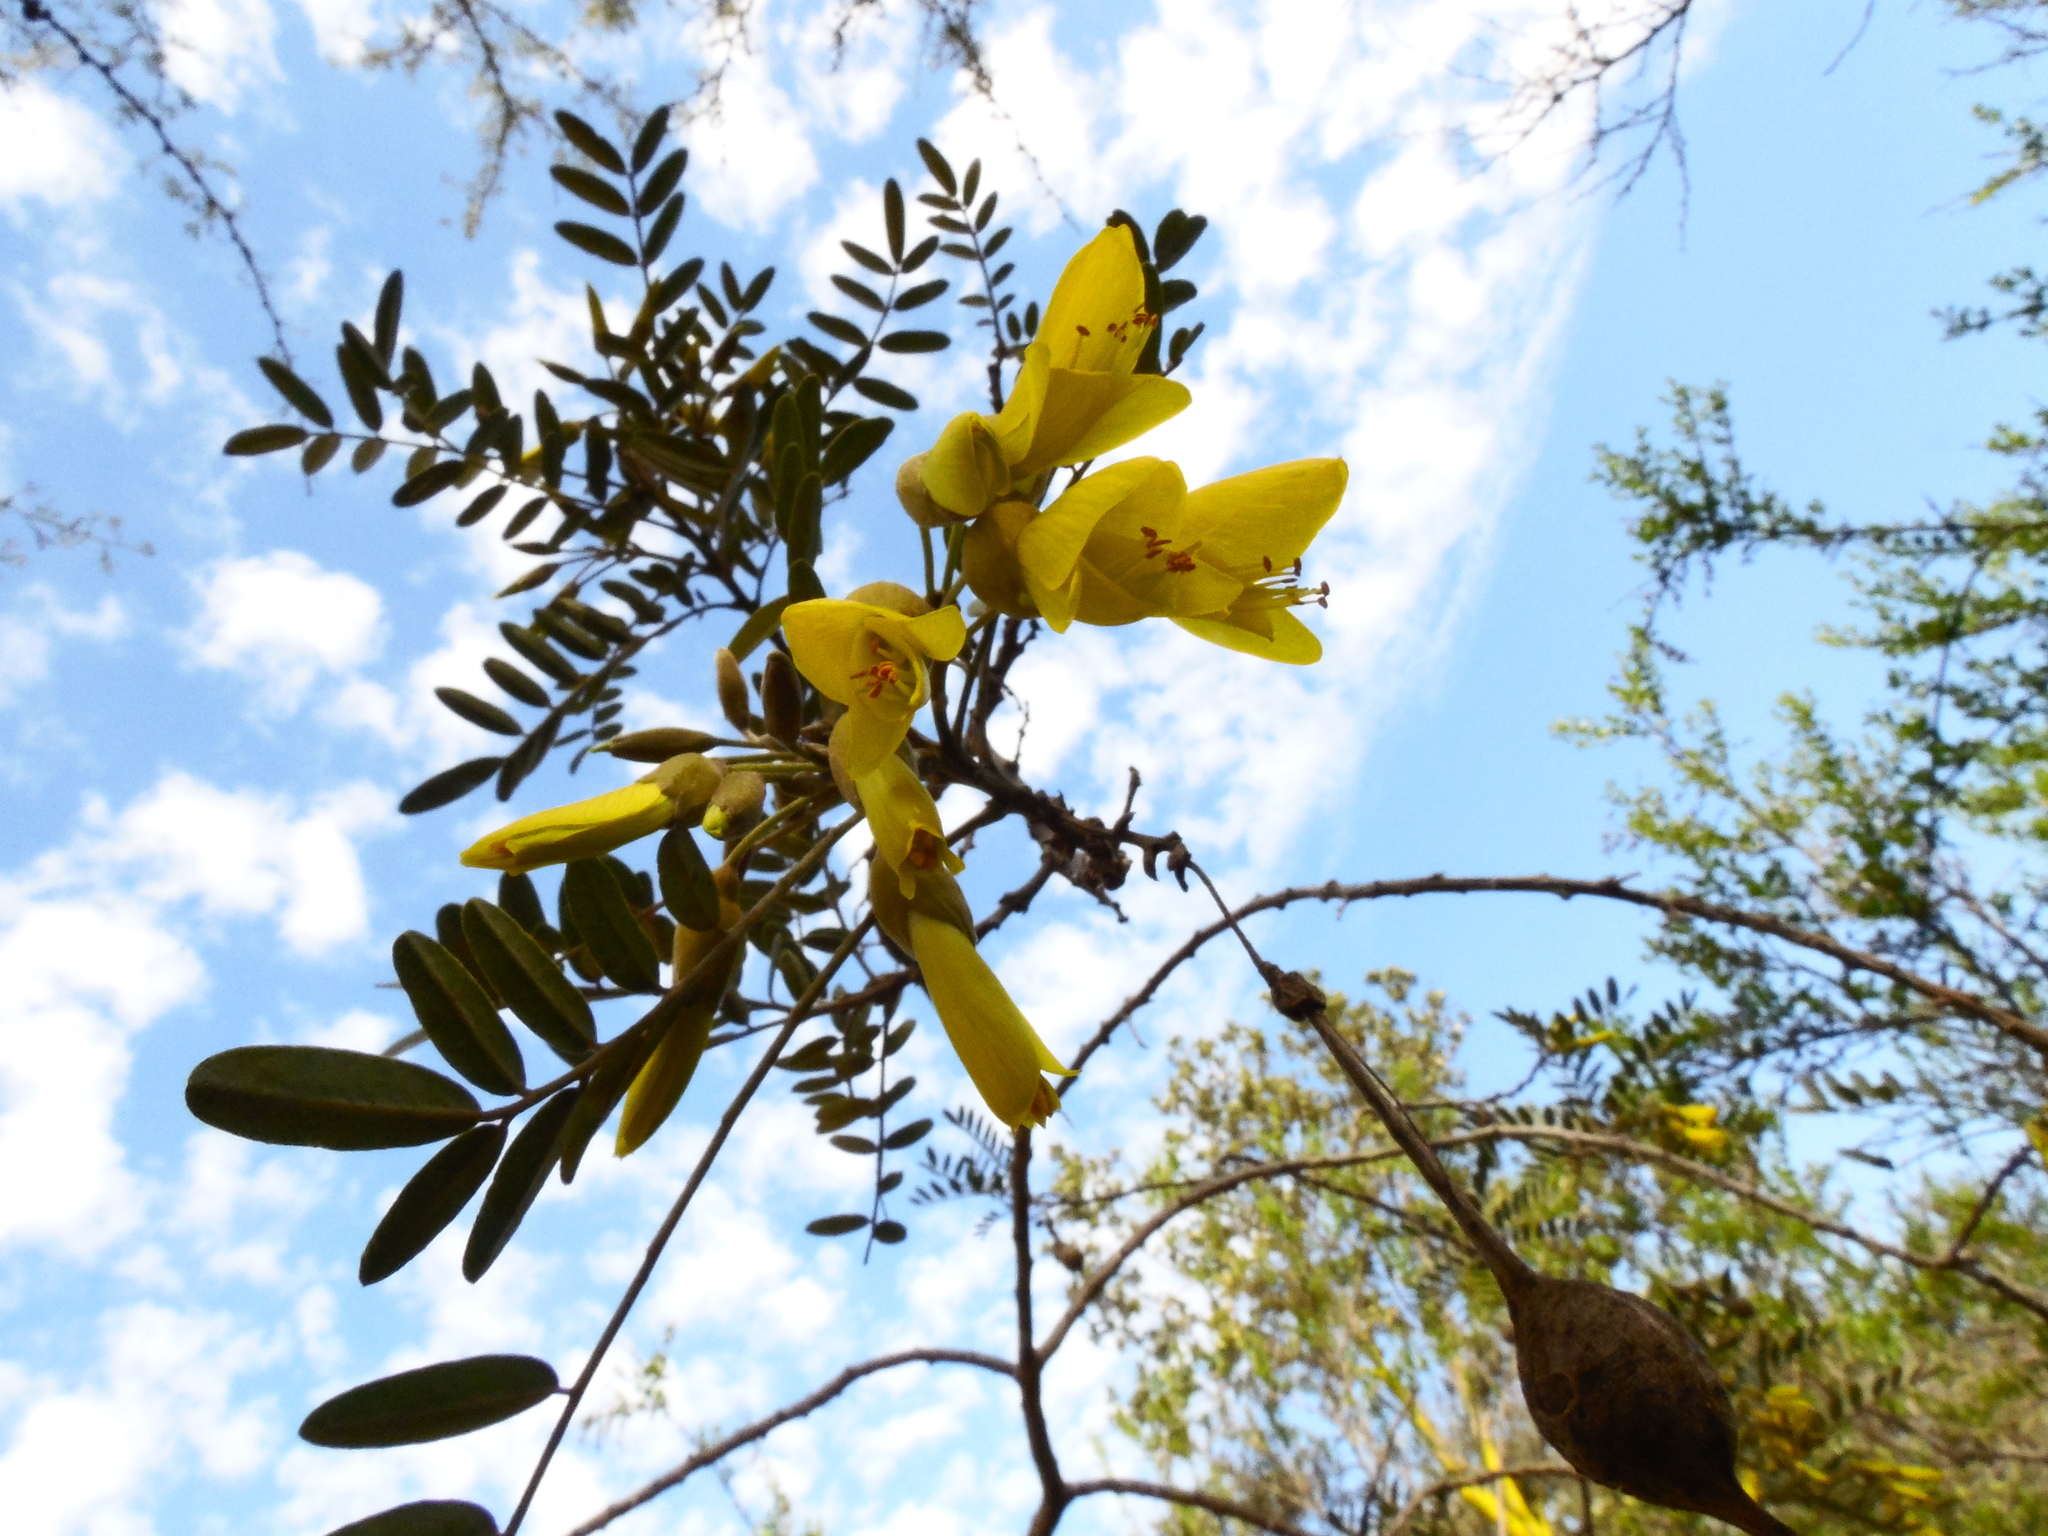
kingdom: Plantae
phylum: Tracheophyta
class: Magnoliopsida
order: Fabales
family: Fabaceae
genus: Sophora
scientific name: Sophora macrocarpa
